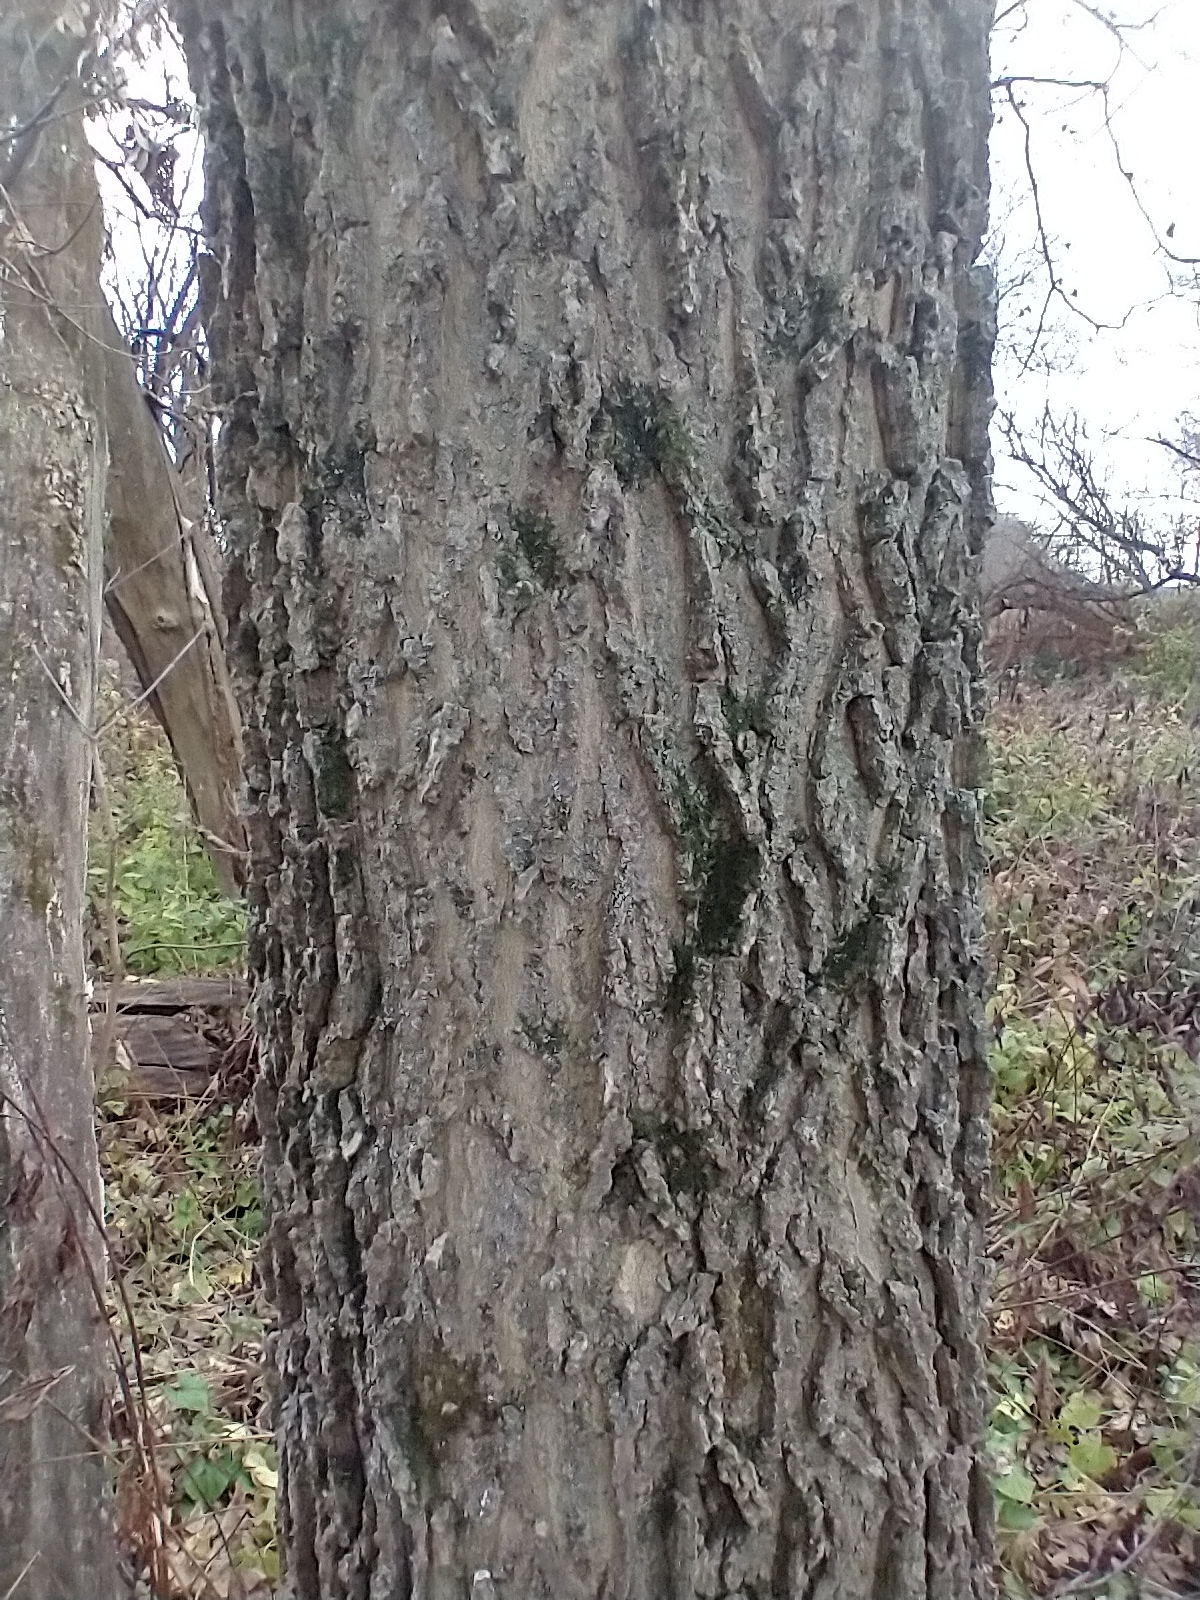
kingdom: Plantae
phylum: Tracheophyta
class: Magnoliopsida
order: Rosales
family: Cannabaceae
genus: Celtis
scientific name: Celtis occidentalis
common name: Common hackberry
